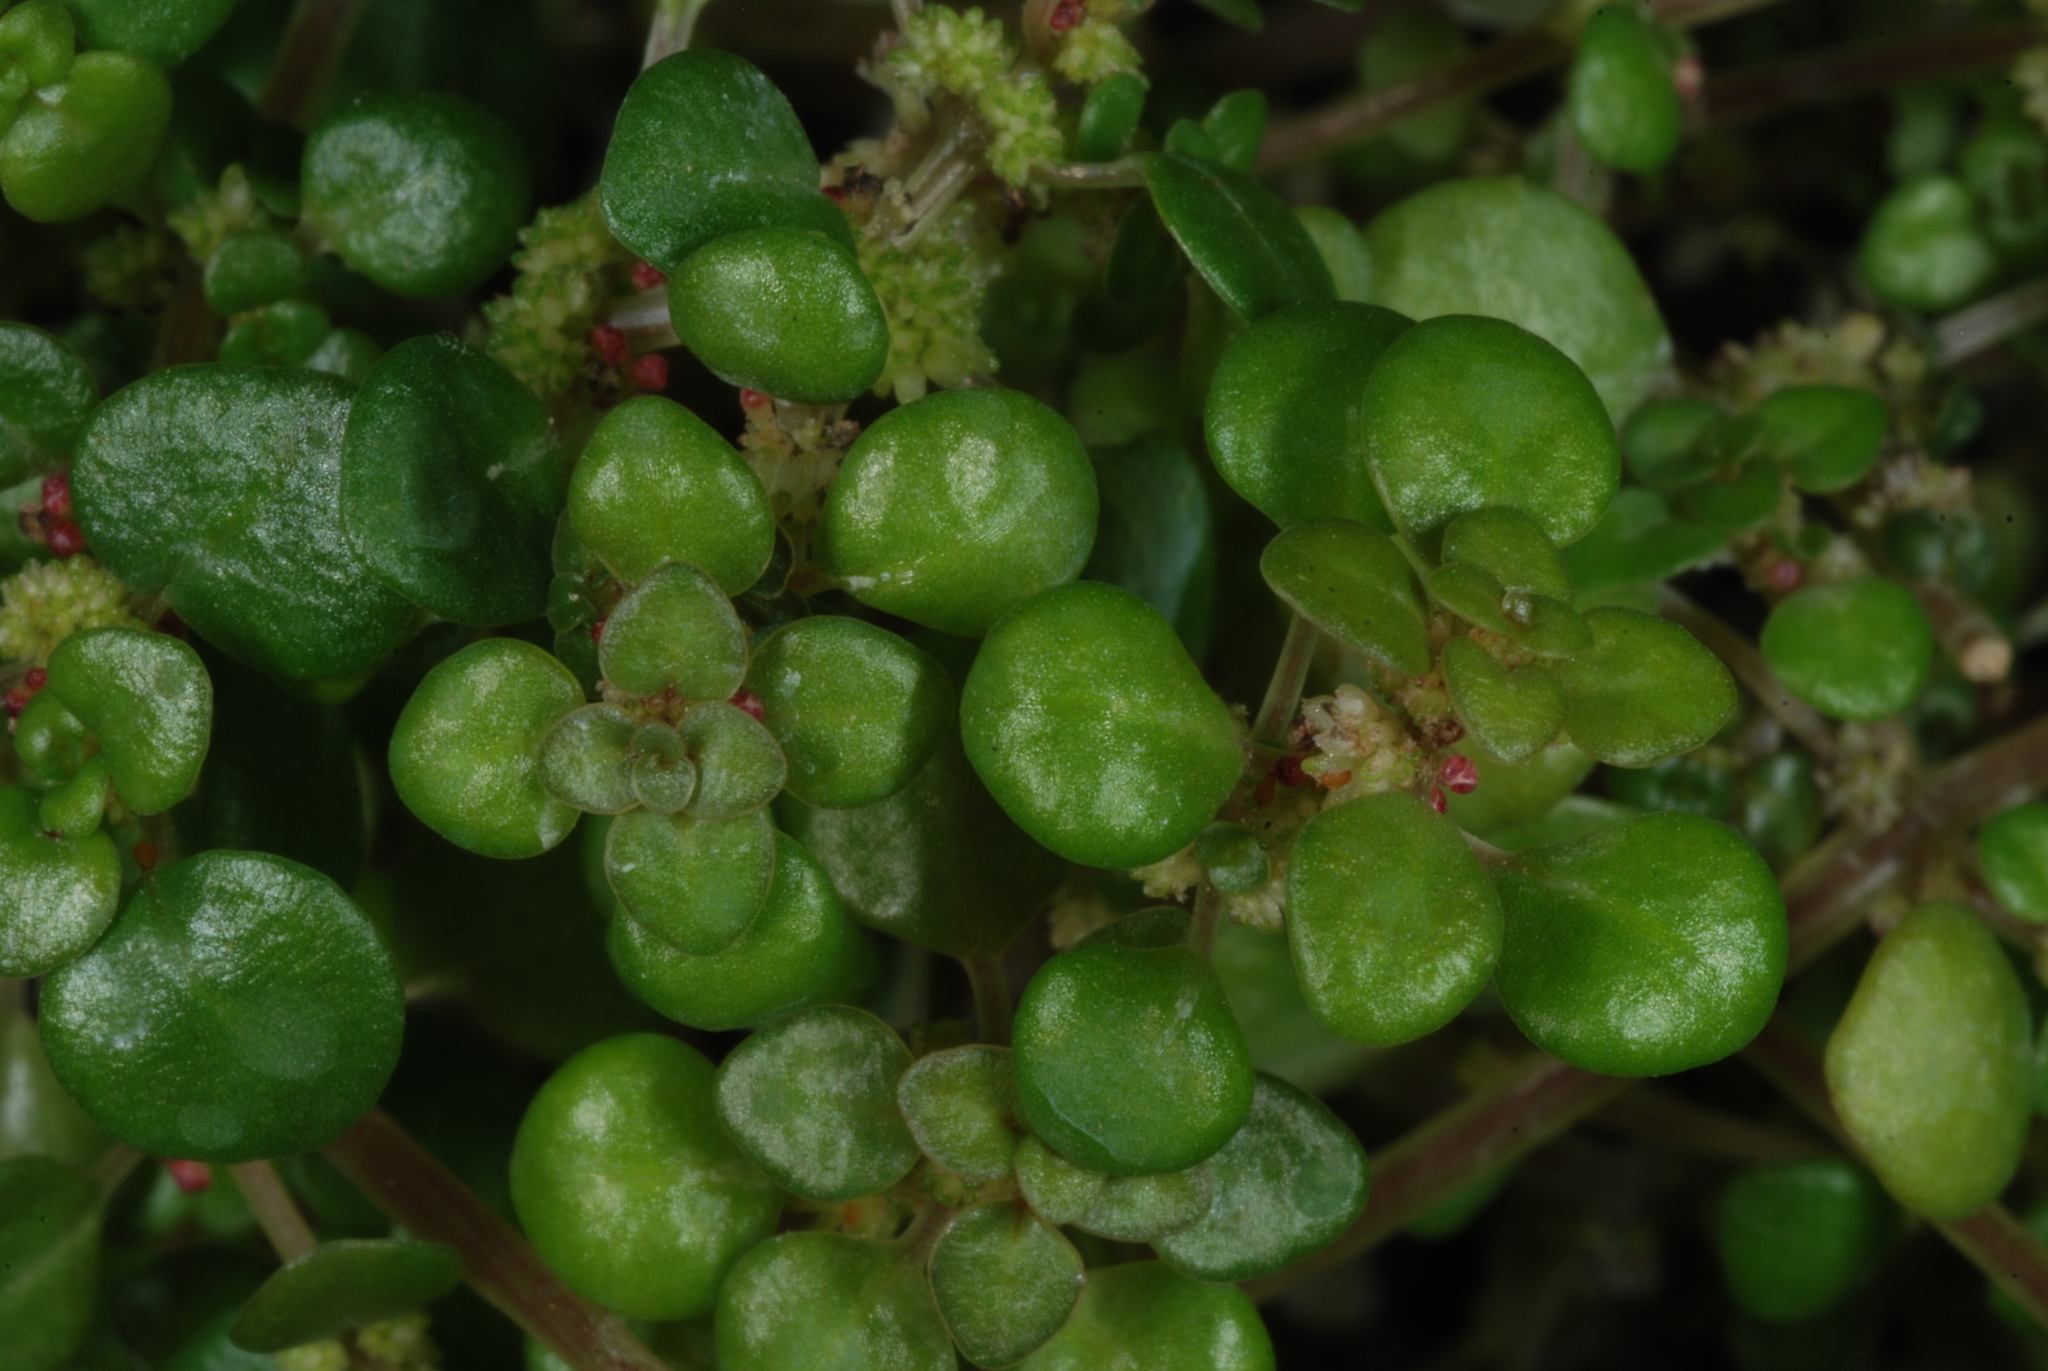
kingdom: Plantae
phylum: Tracheophyta
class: Magnoliopsida
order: Rosales
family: Urticaceae
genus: Pilea
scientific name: Pilea herniarioides
